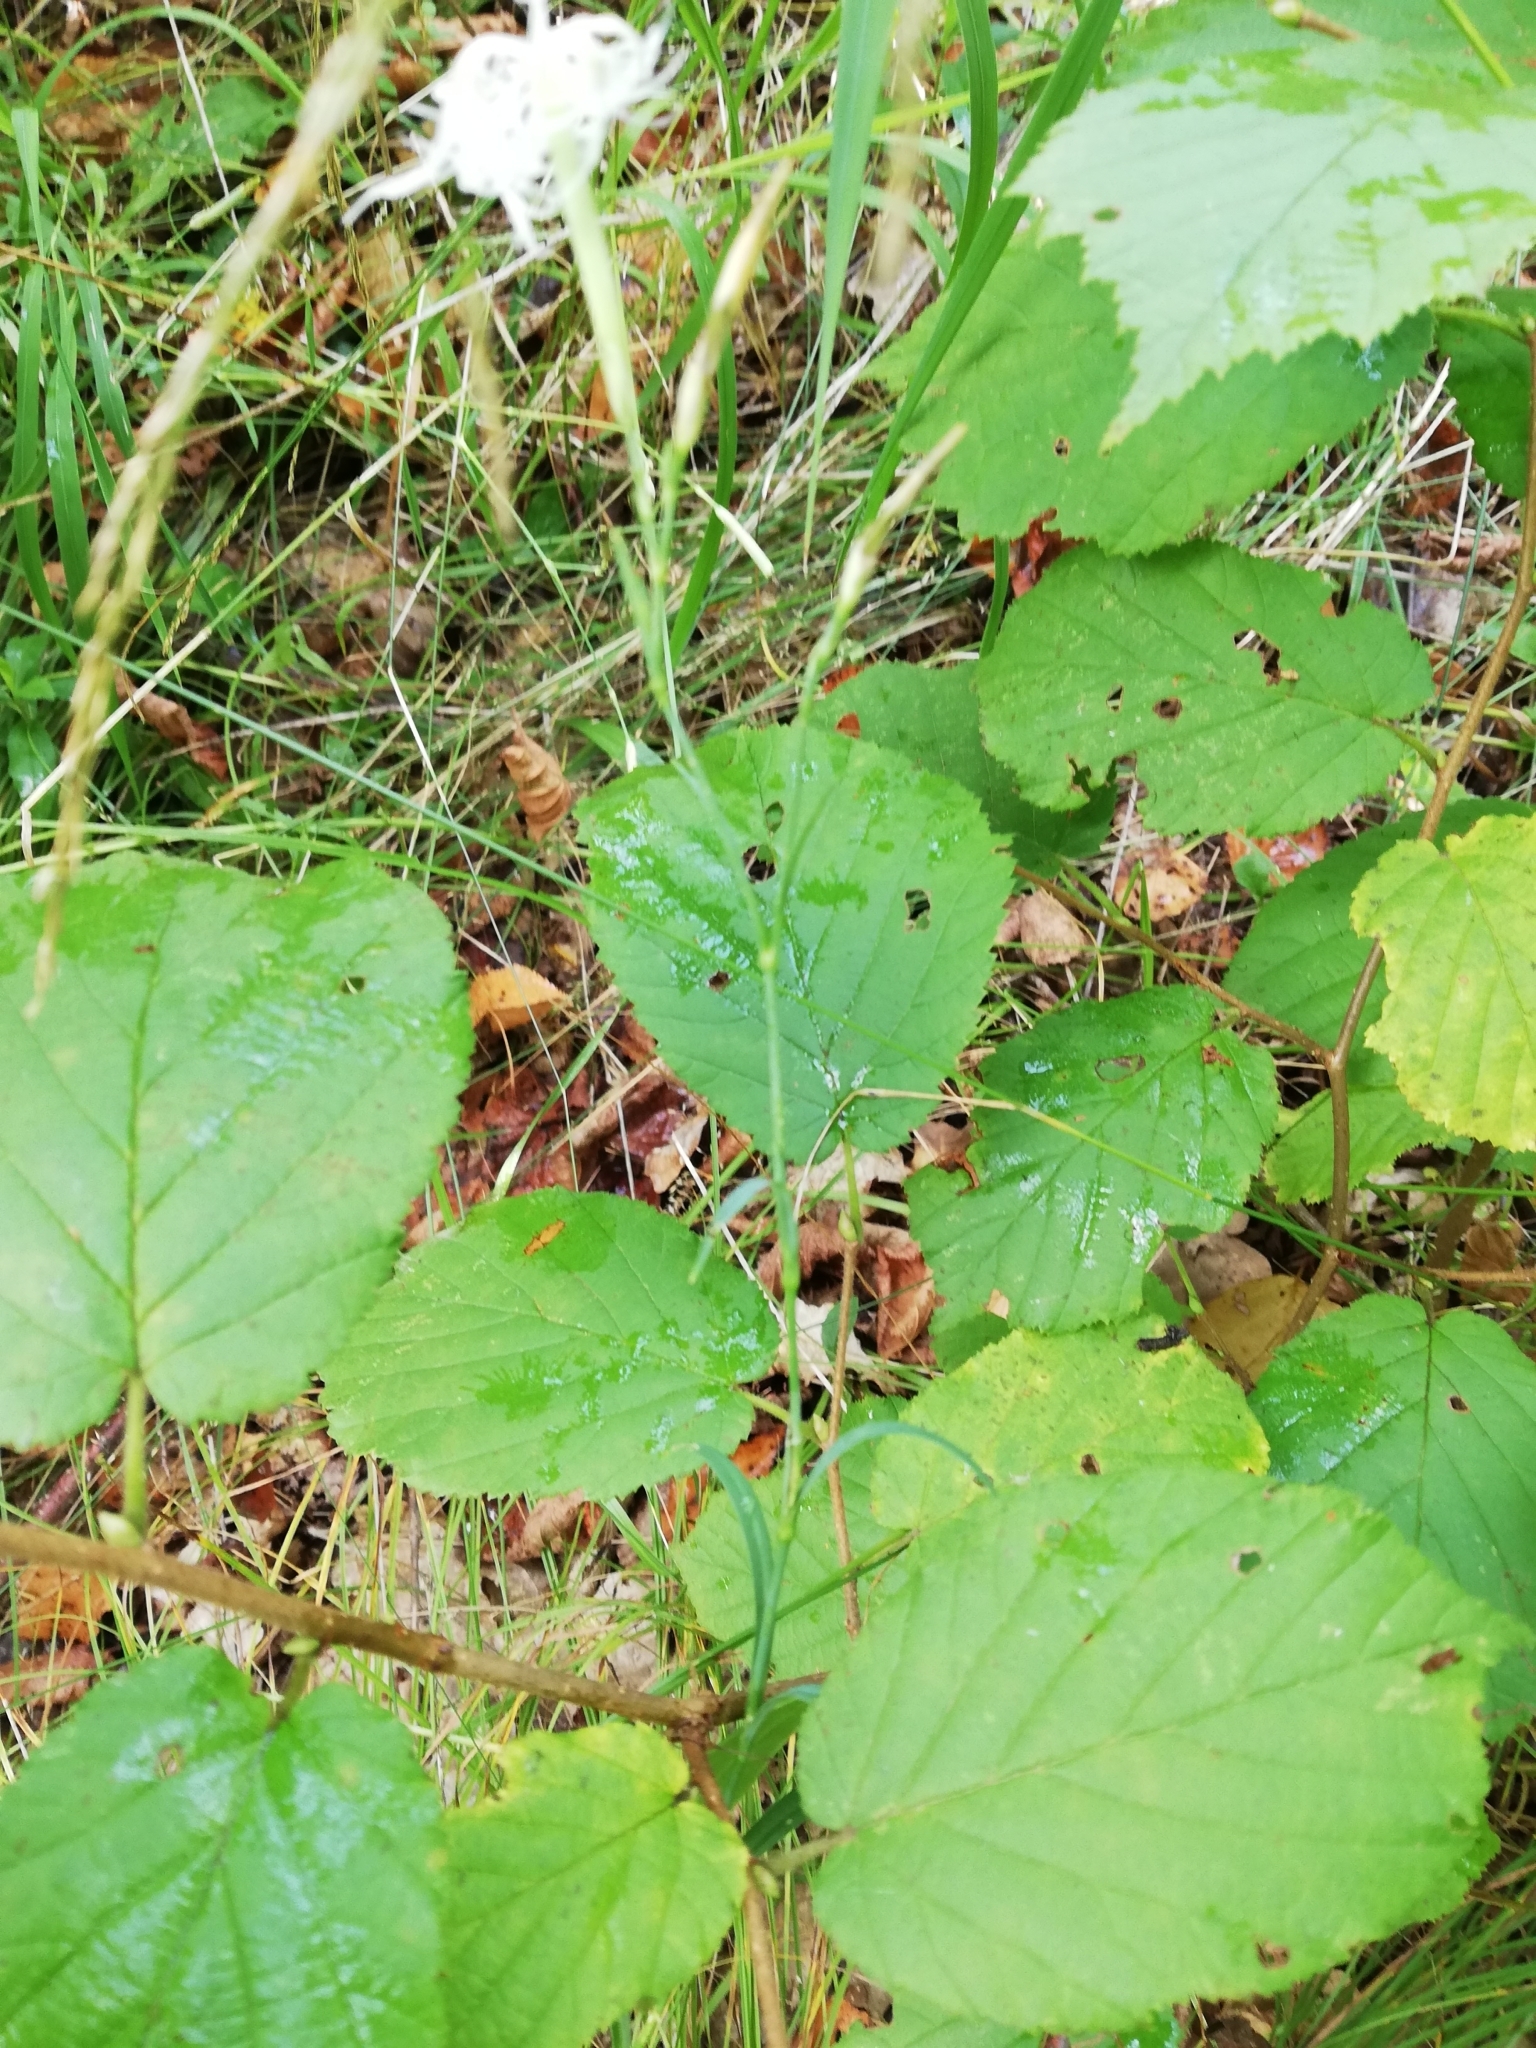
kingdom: Plantae
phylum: Tracheophyta
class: Magnoliopsida
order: Caryophyllales
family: Caryophyllaceae
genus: Dianthus
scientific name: Dianthus superbus
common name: Fringed pink
